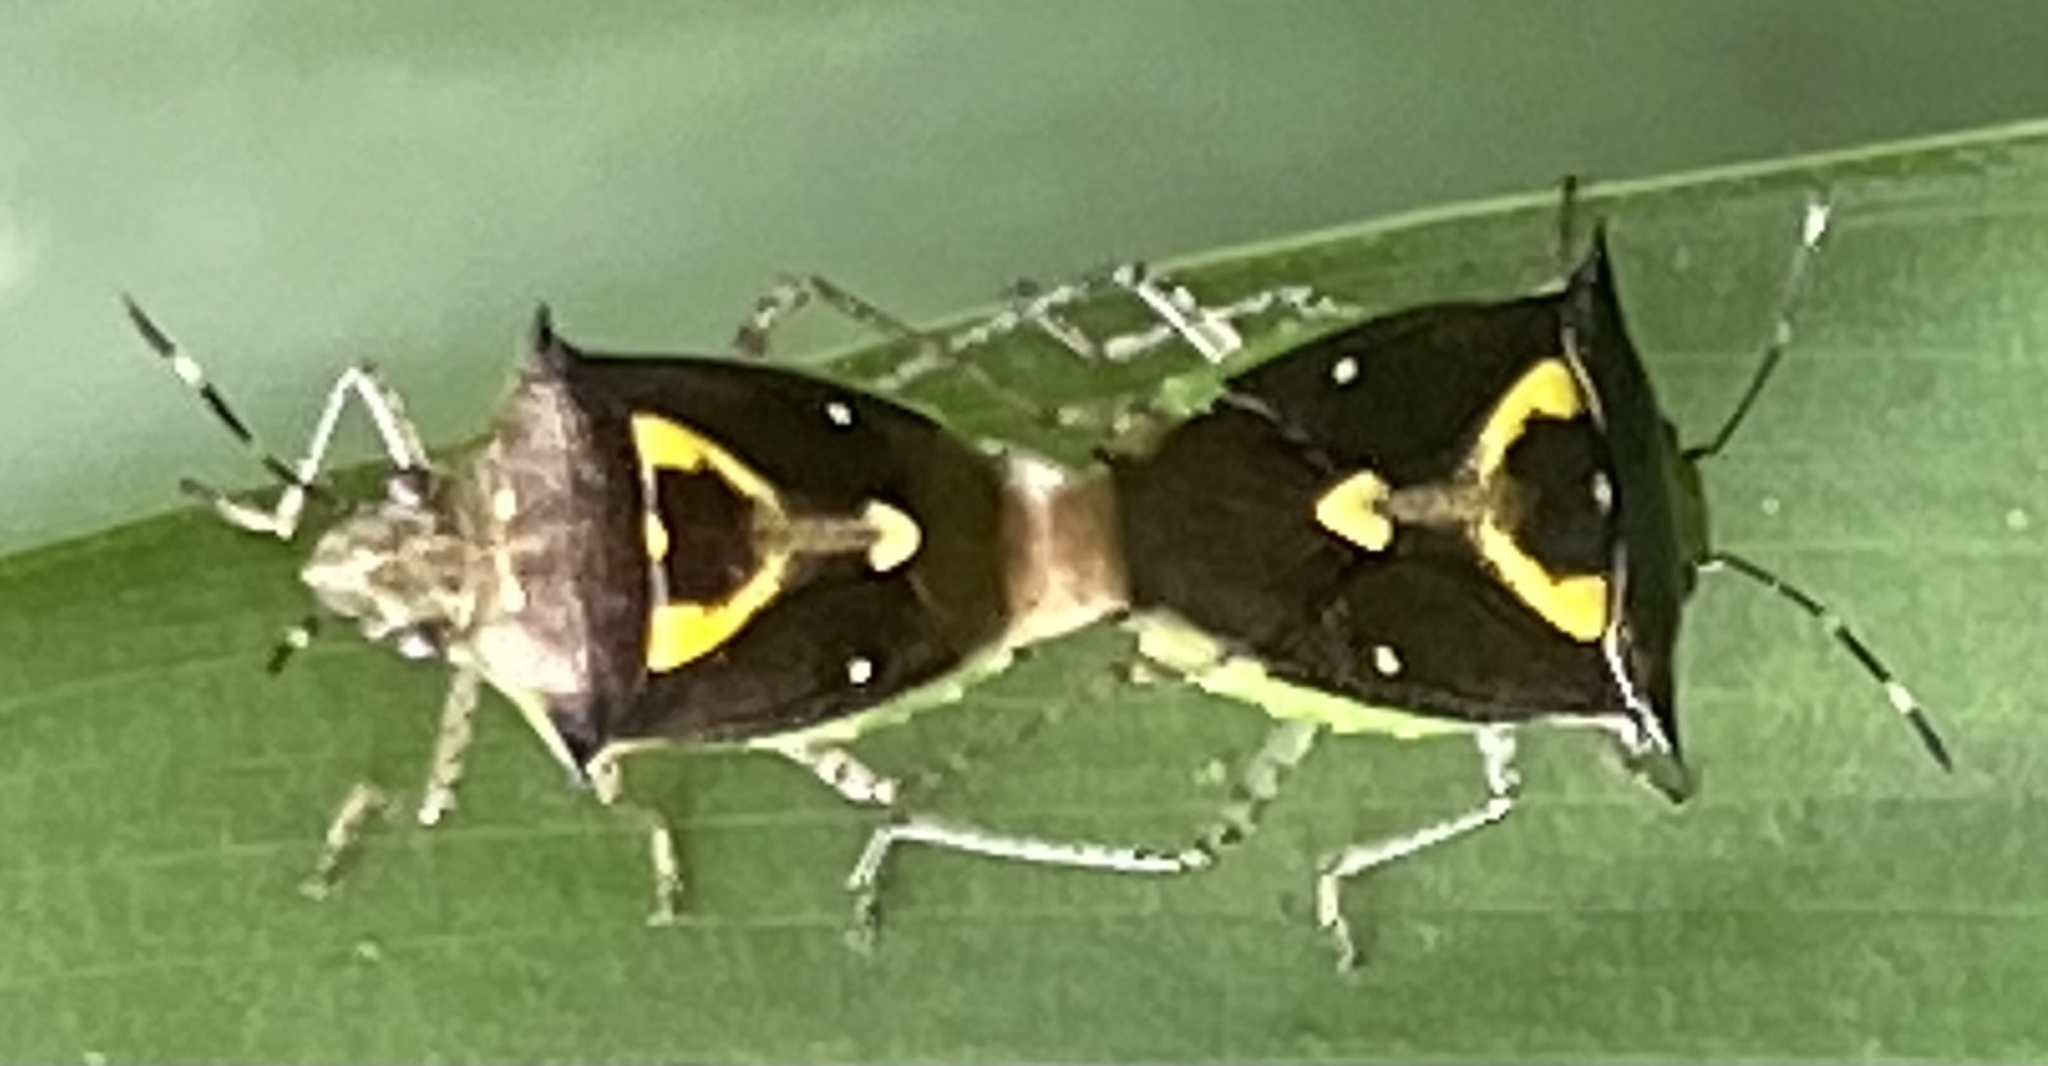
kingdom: Animalia
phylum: Arthropoda
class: Insecta
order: Hemiptera
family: Pentatomidae
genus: Mormidea
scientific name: Mormidea ypsilon
